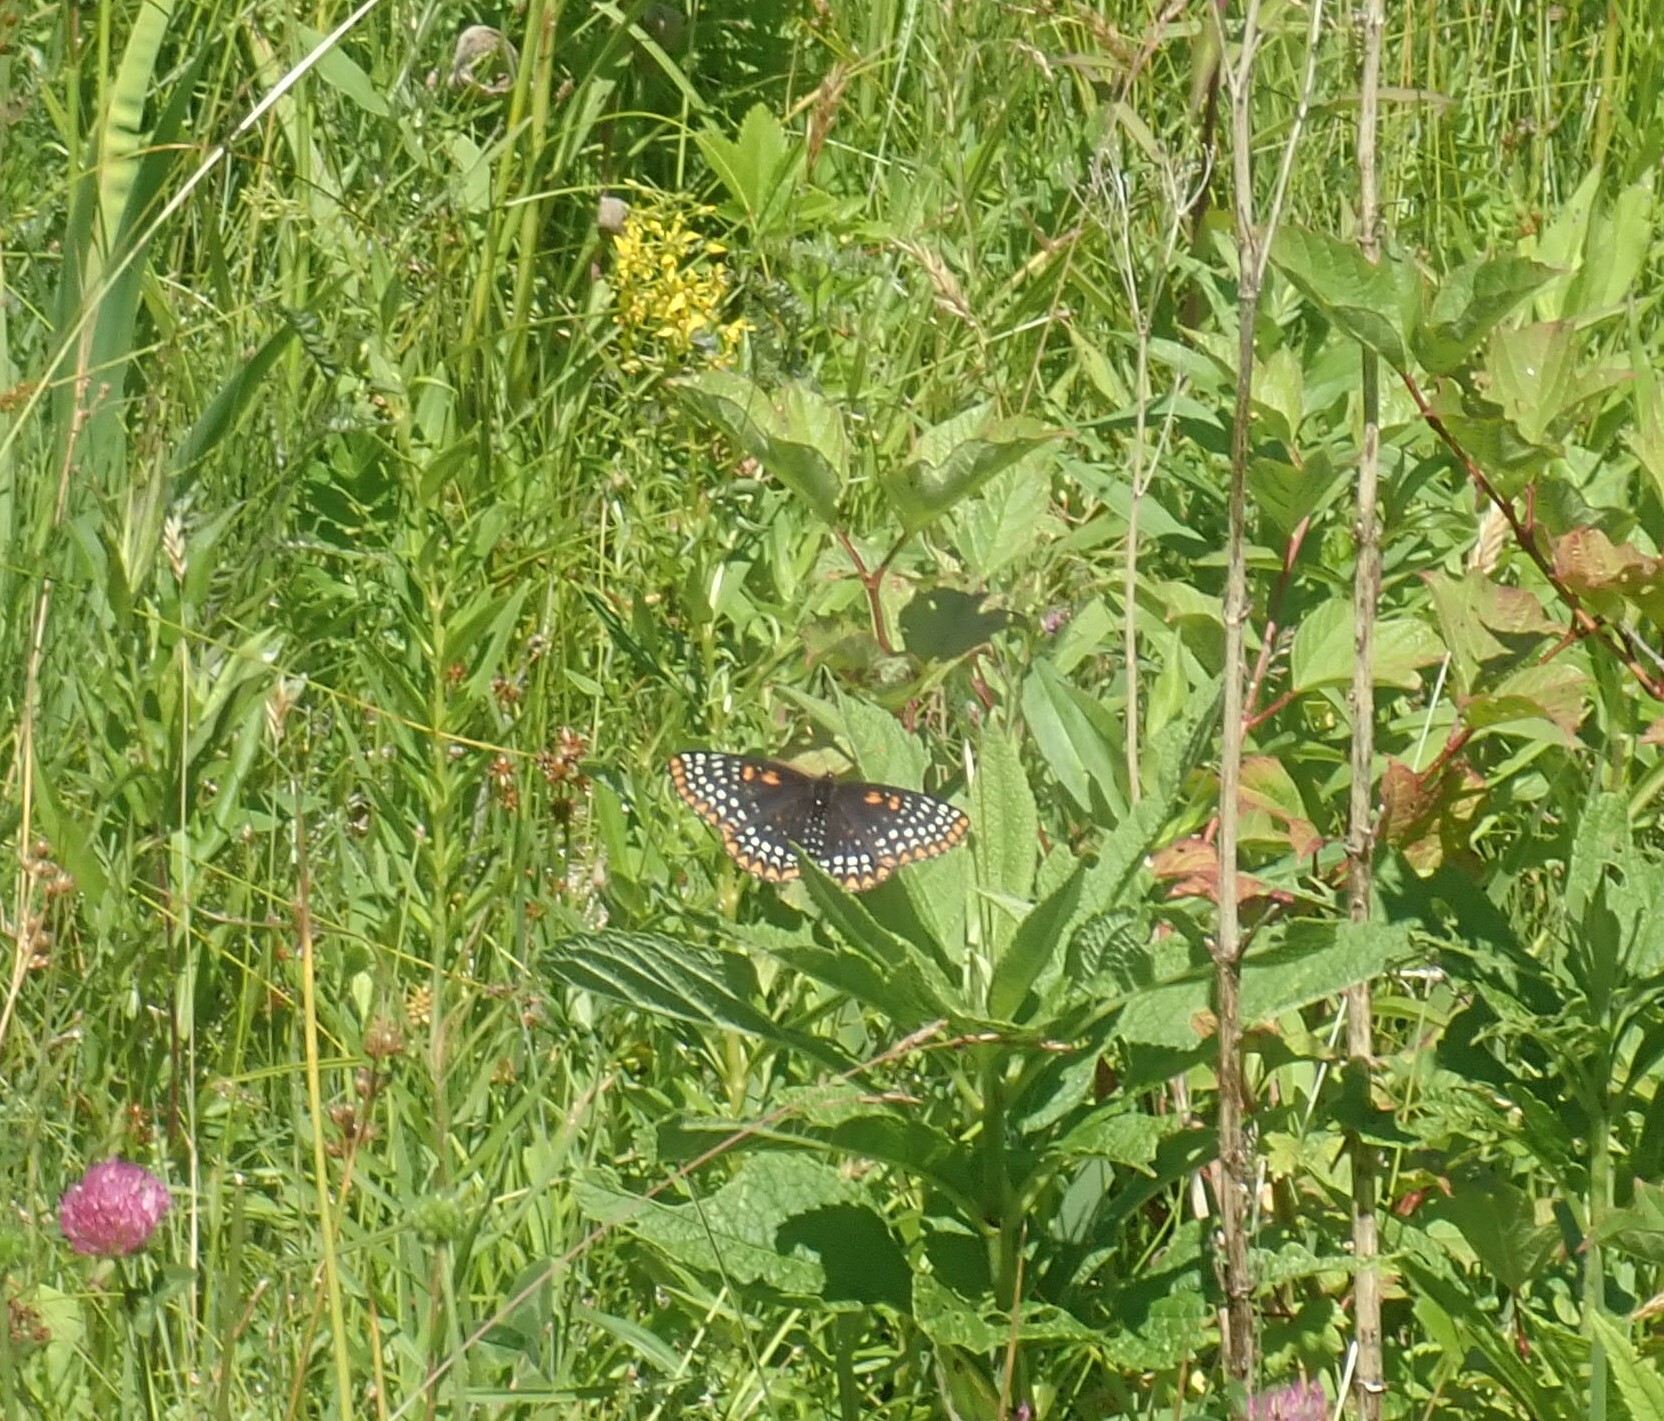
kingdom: Animalia
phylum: Arthropoda
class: Insecta
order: Lepidoptera
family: Nymphalidae
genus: Euphydryas
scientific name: Euphydryas phaeton
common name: Baltimore checkerspot
